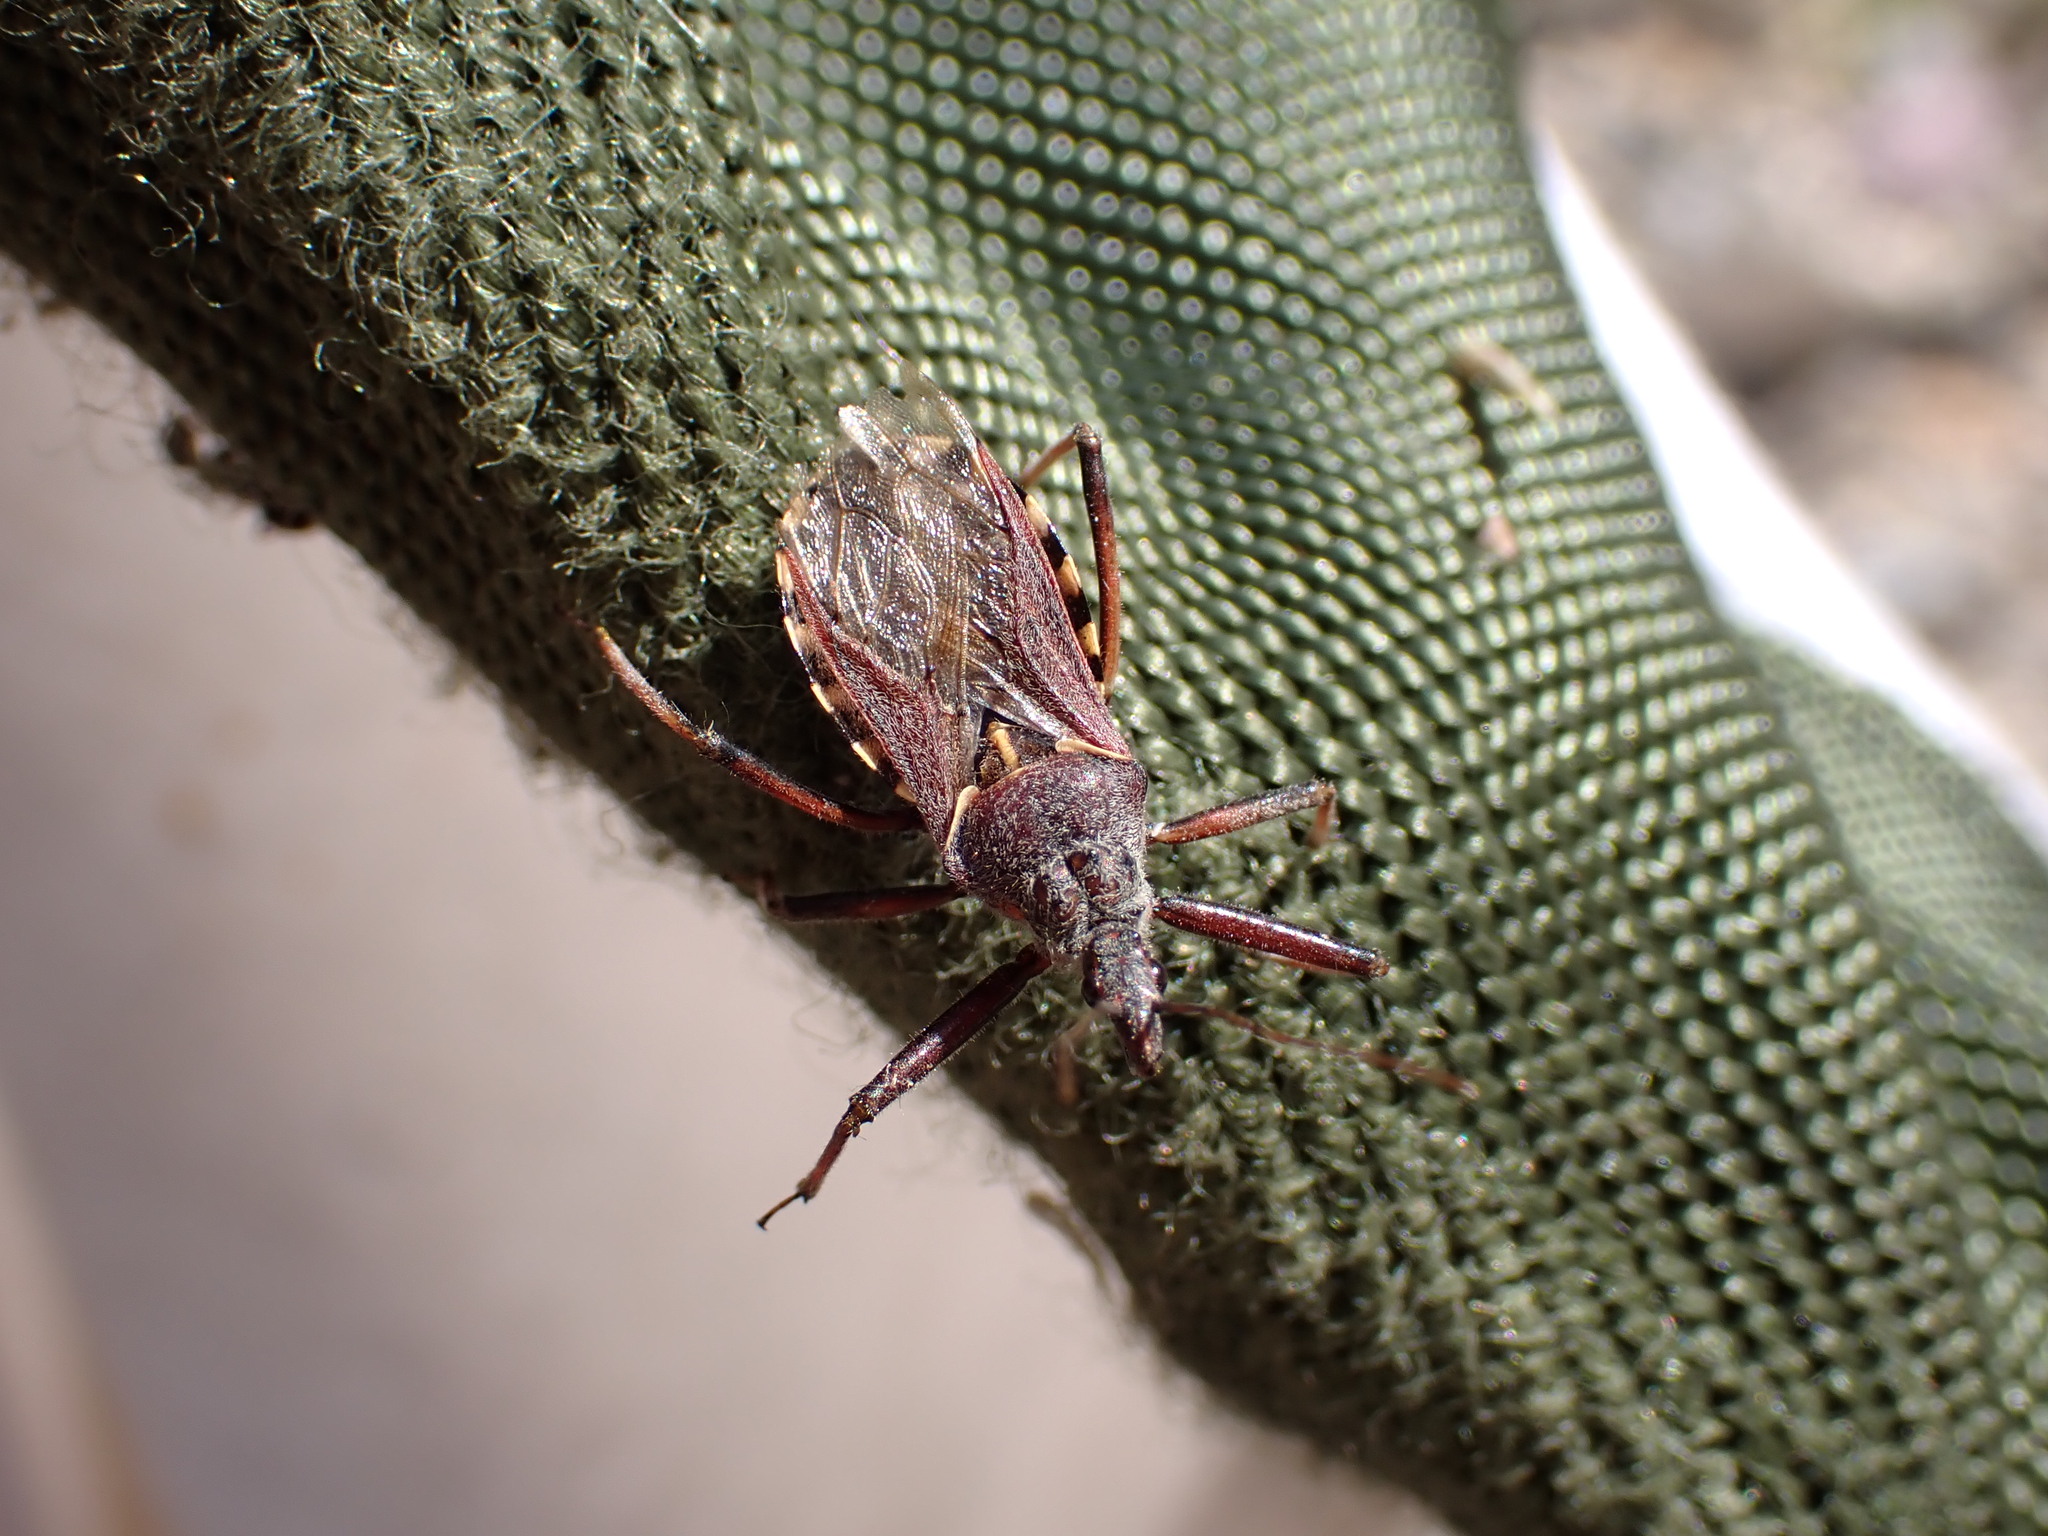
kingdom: Animalia
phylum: Arthropoda
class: Insecta
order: Hemiptera
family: Reduviidae
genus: Rhynocoris
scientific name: Rhynocoris erythropus
